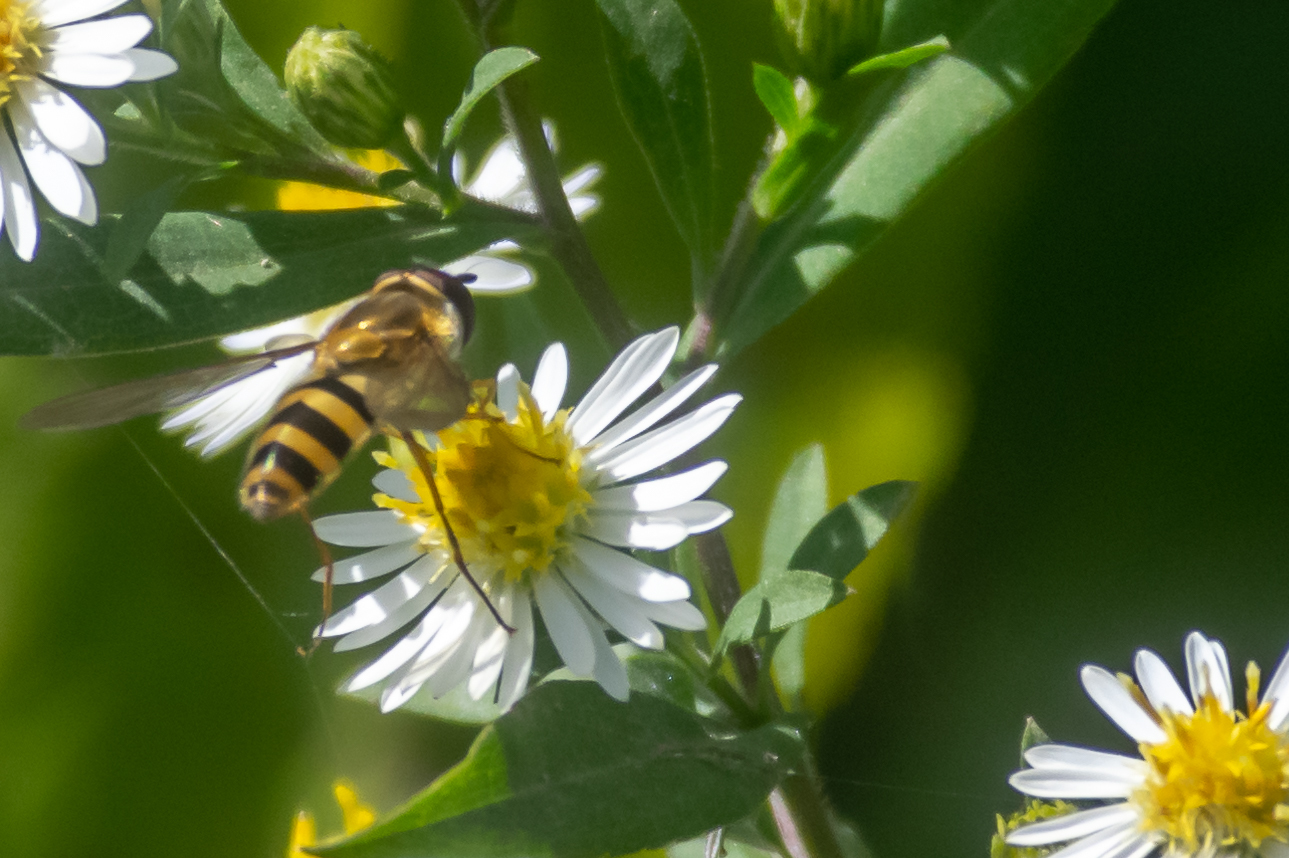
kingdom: Animalia
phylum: Arthropoda
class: Insecta
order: Diptera
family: Syrphidae
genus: Epistrophe
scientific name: Epistrophe grossulariae
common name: Black-horned smoothtail
